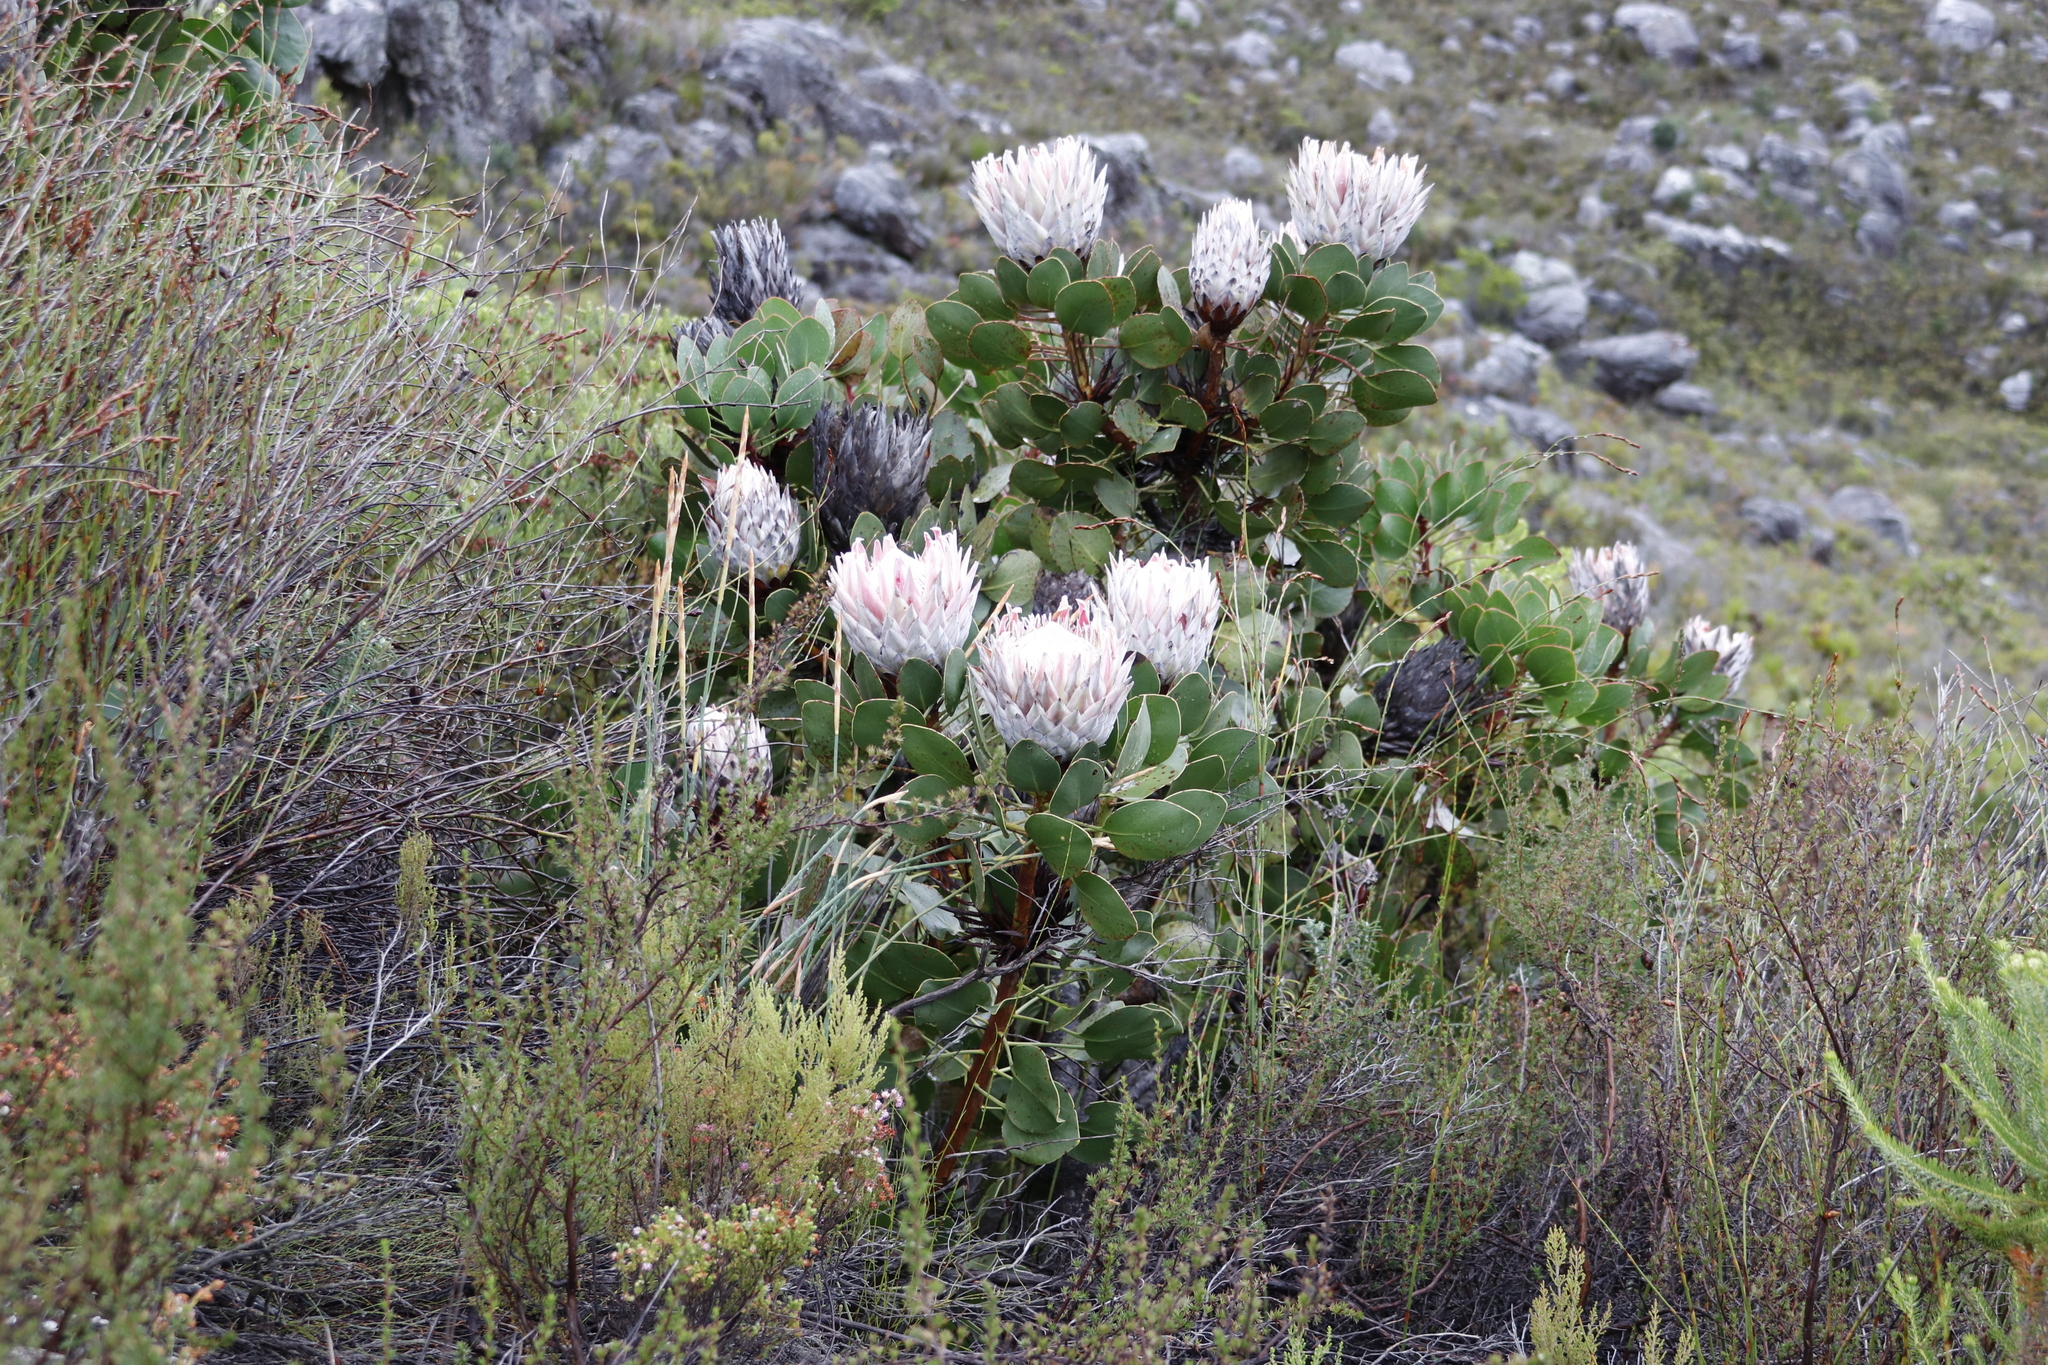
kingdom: Plantae
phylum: Tracheophyta
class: Magnoliopsida
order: Proteales
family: Proteaceae
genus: Protea
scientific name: Protea cynaroides
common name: King protea
